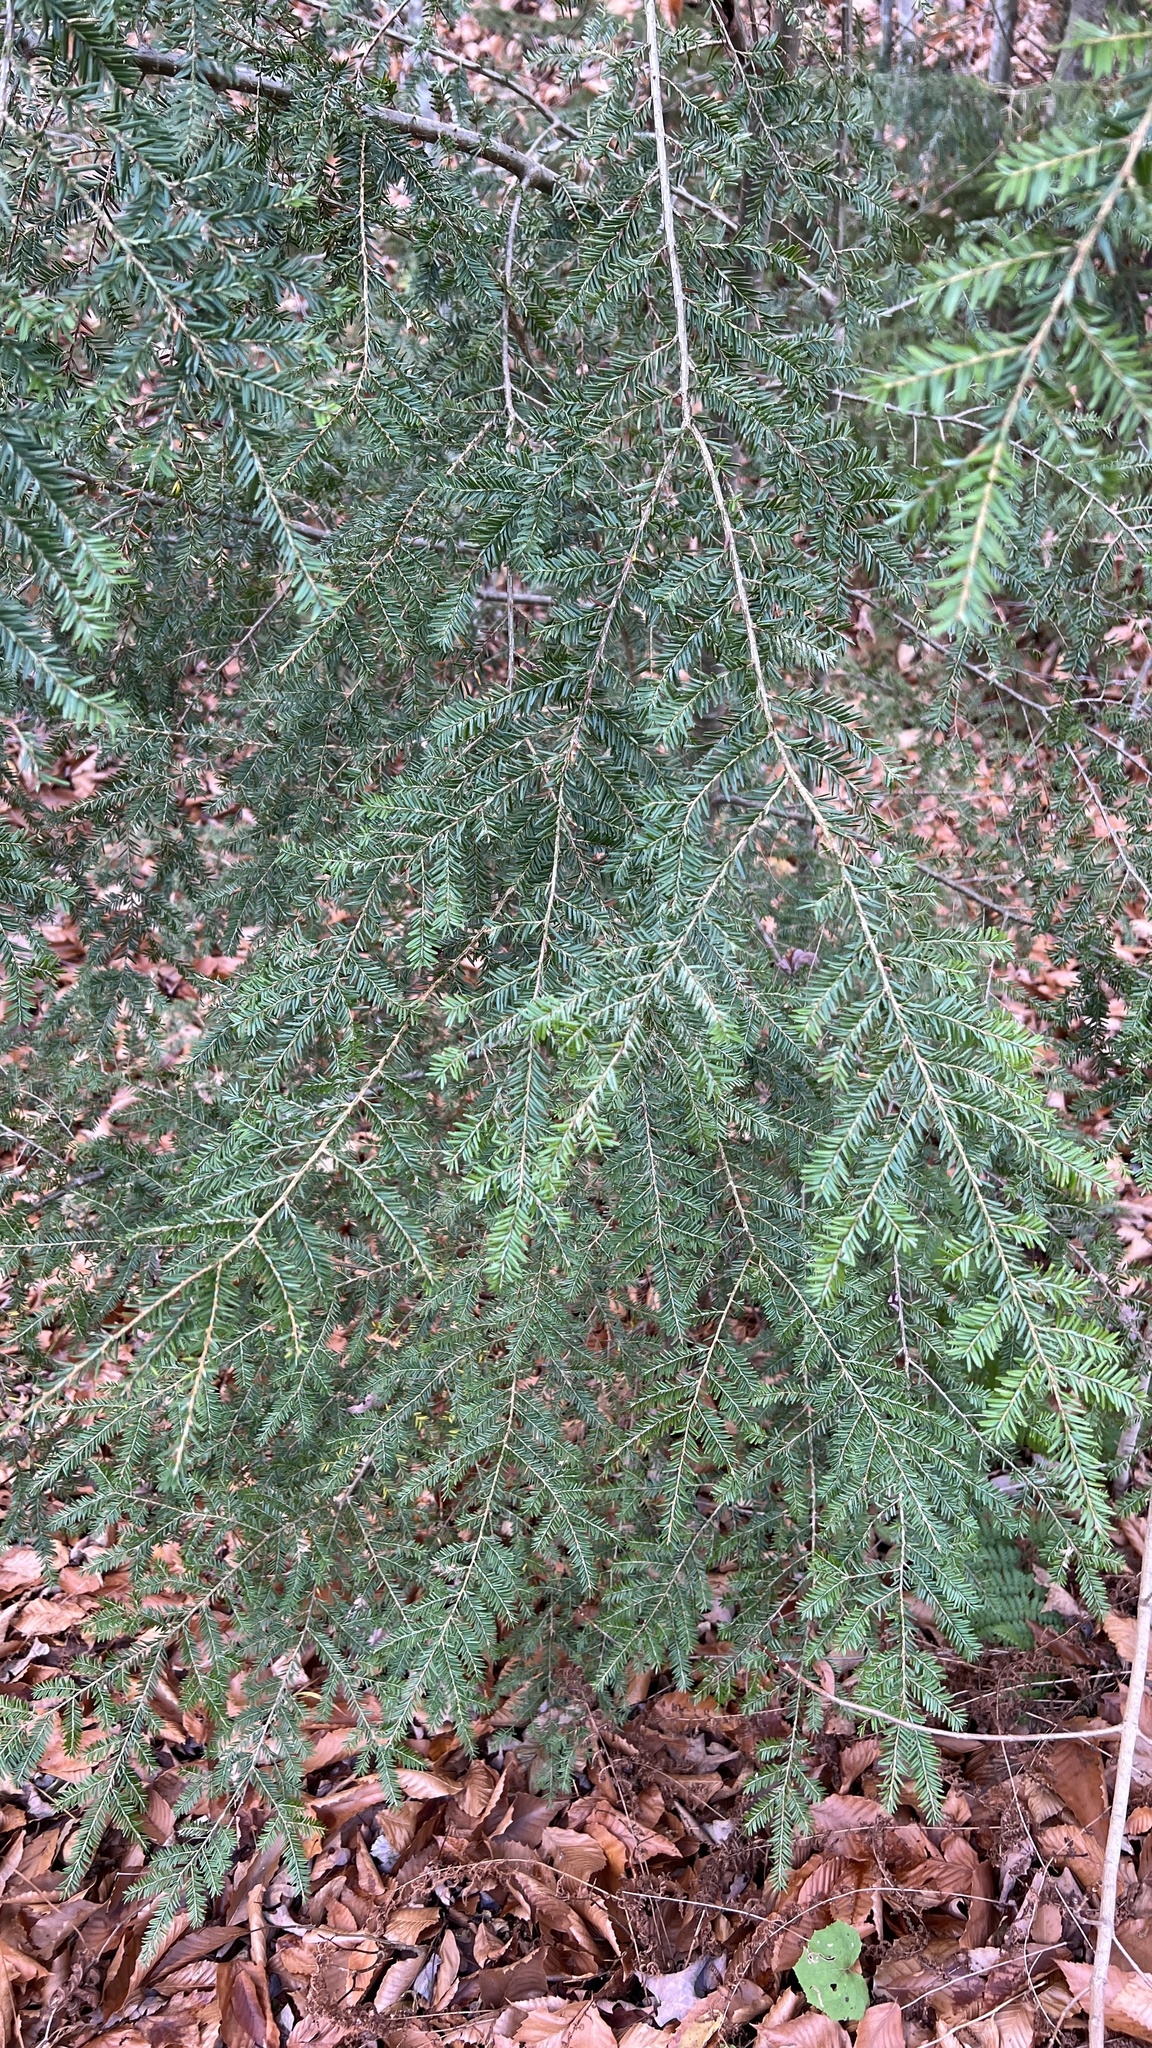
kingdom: Plantae
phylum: Tracheophyta
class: Pinopsida
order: Pinales
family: Pinaceae
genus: Tsuga
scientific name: Tsuga canadensis
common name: Eastern hemlock
